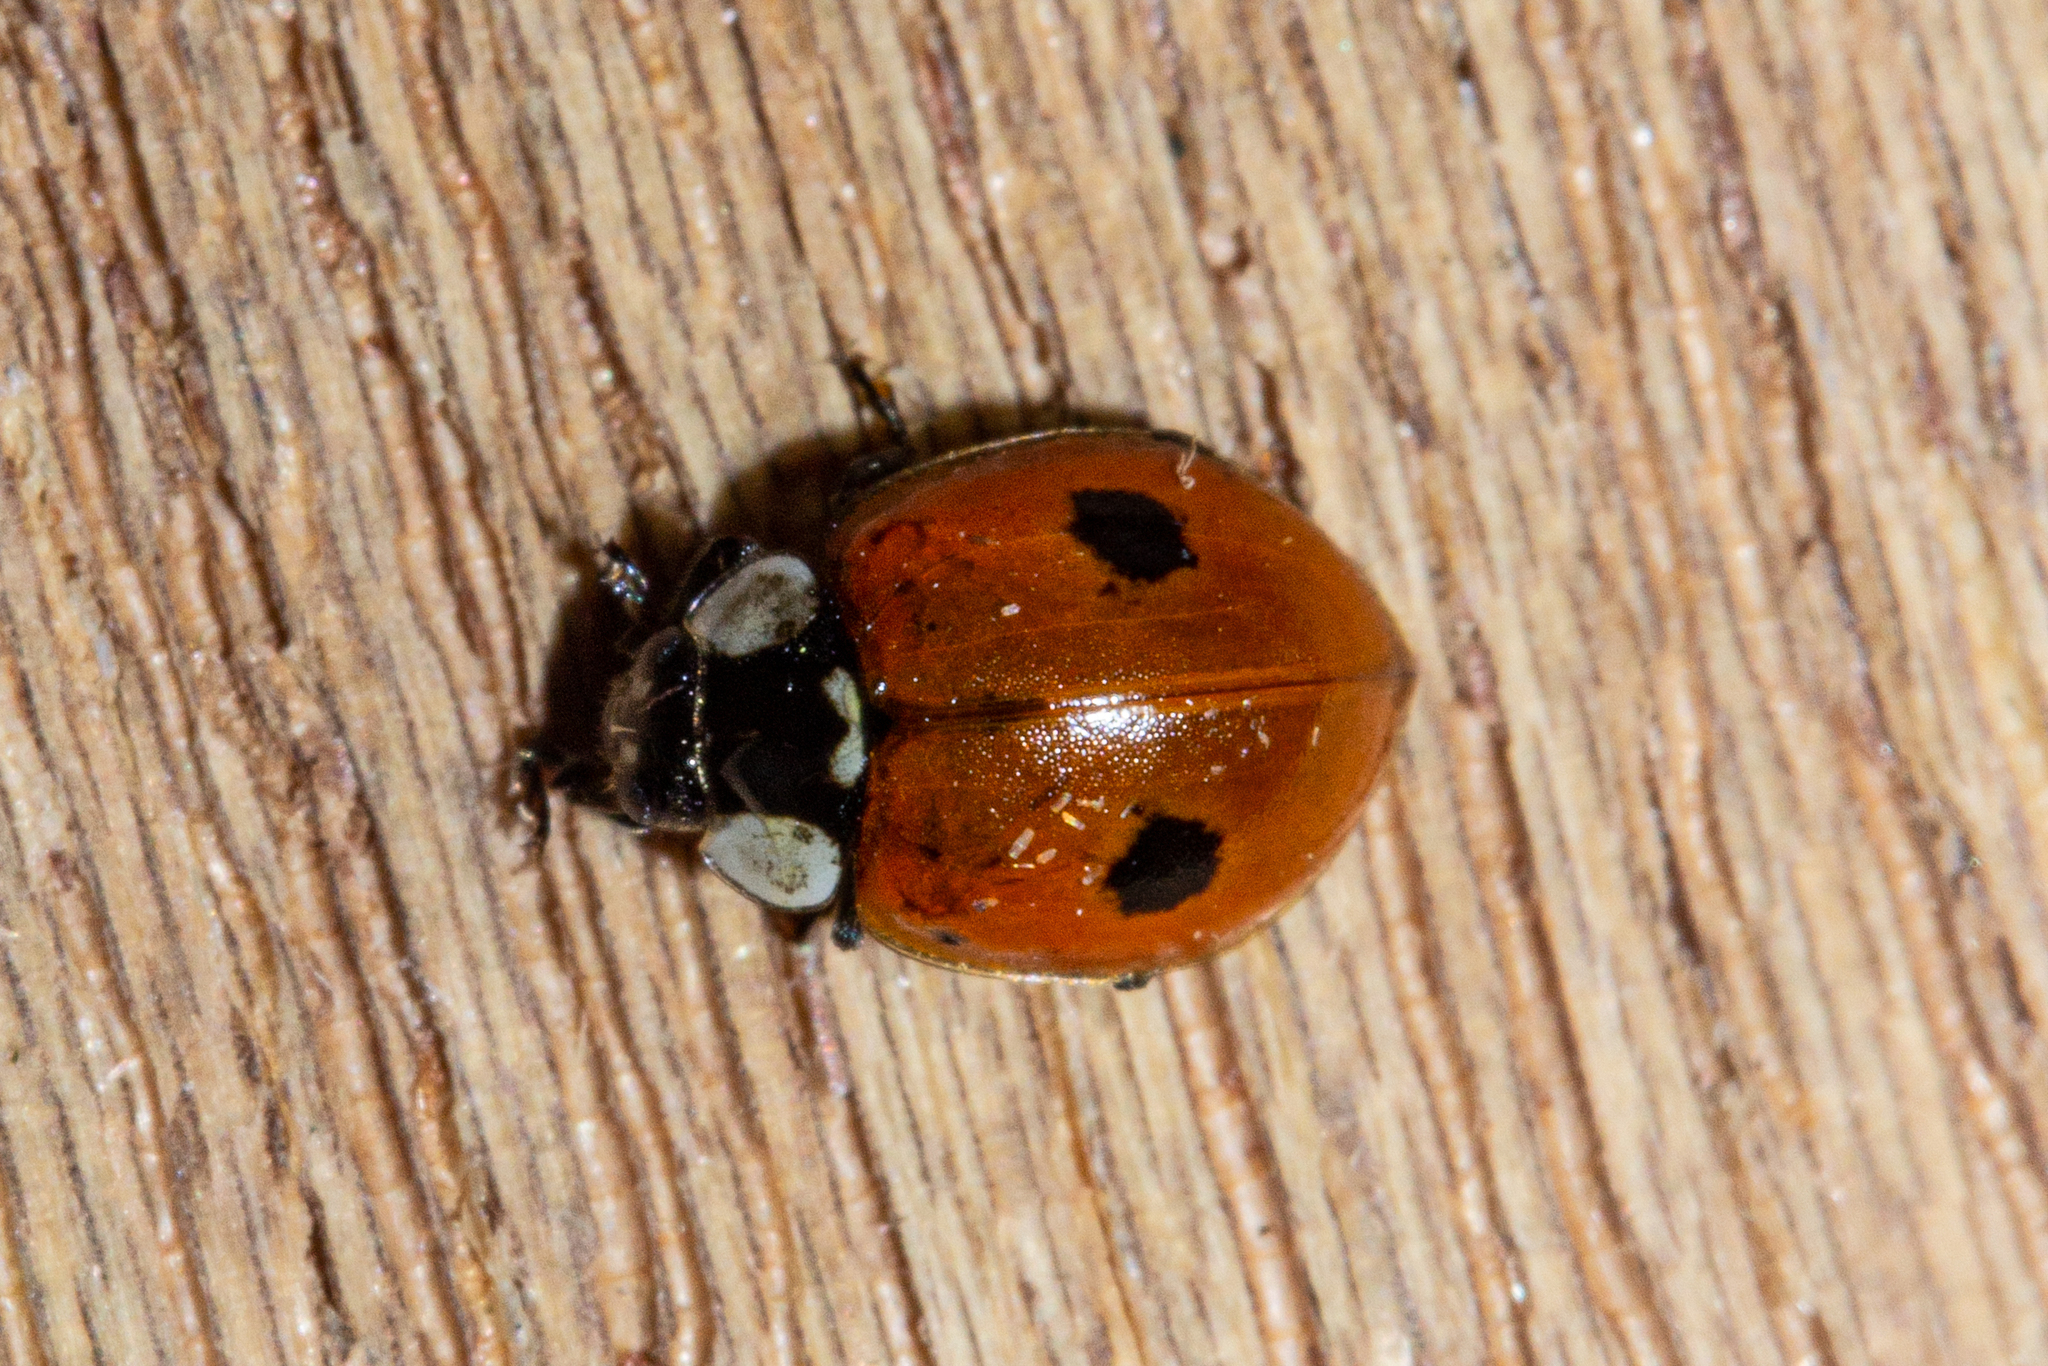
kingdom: Animalia
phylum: Arthropoda
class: Insecta
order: Coleoptera
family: Coccinellidae
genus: Adalia
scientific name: Adalia bipunctata
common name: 2-spot ladybird
